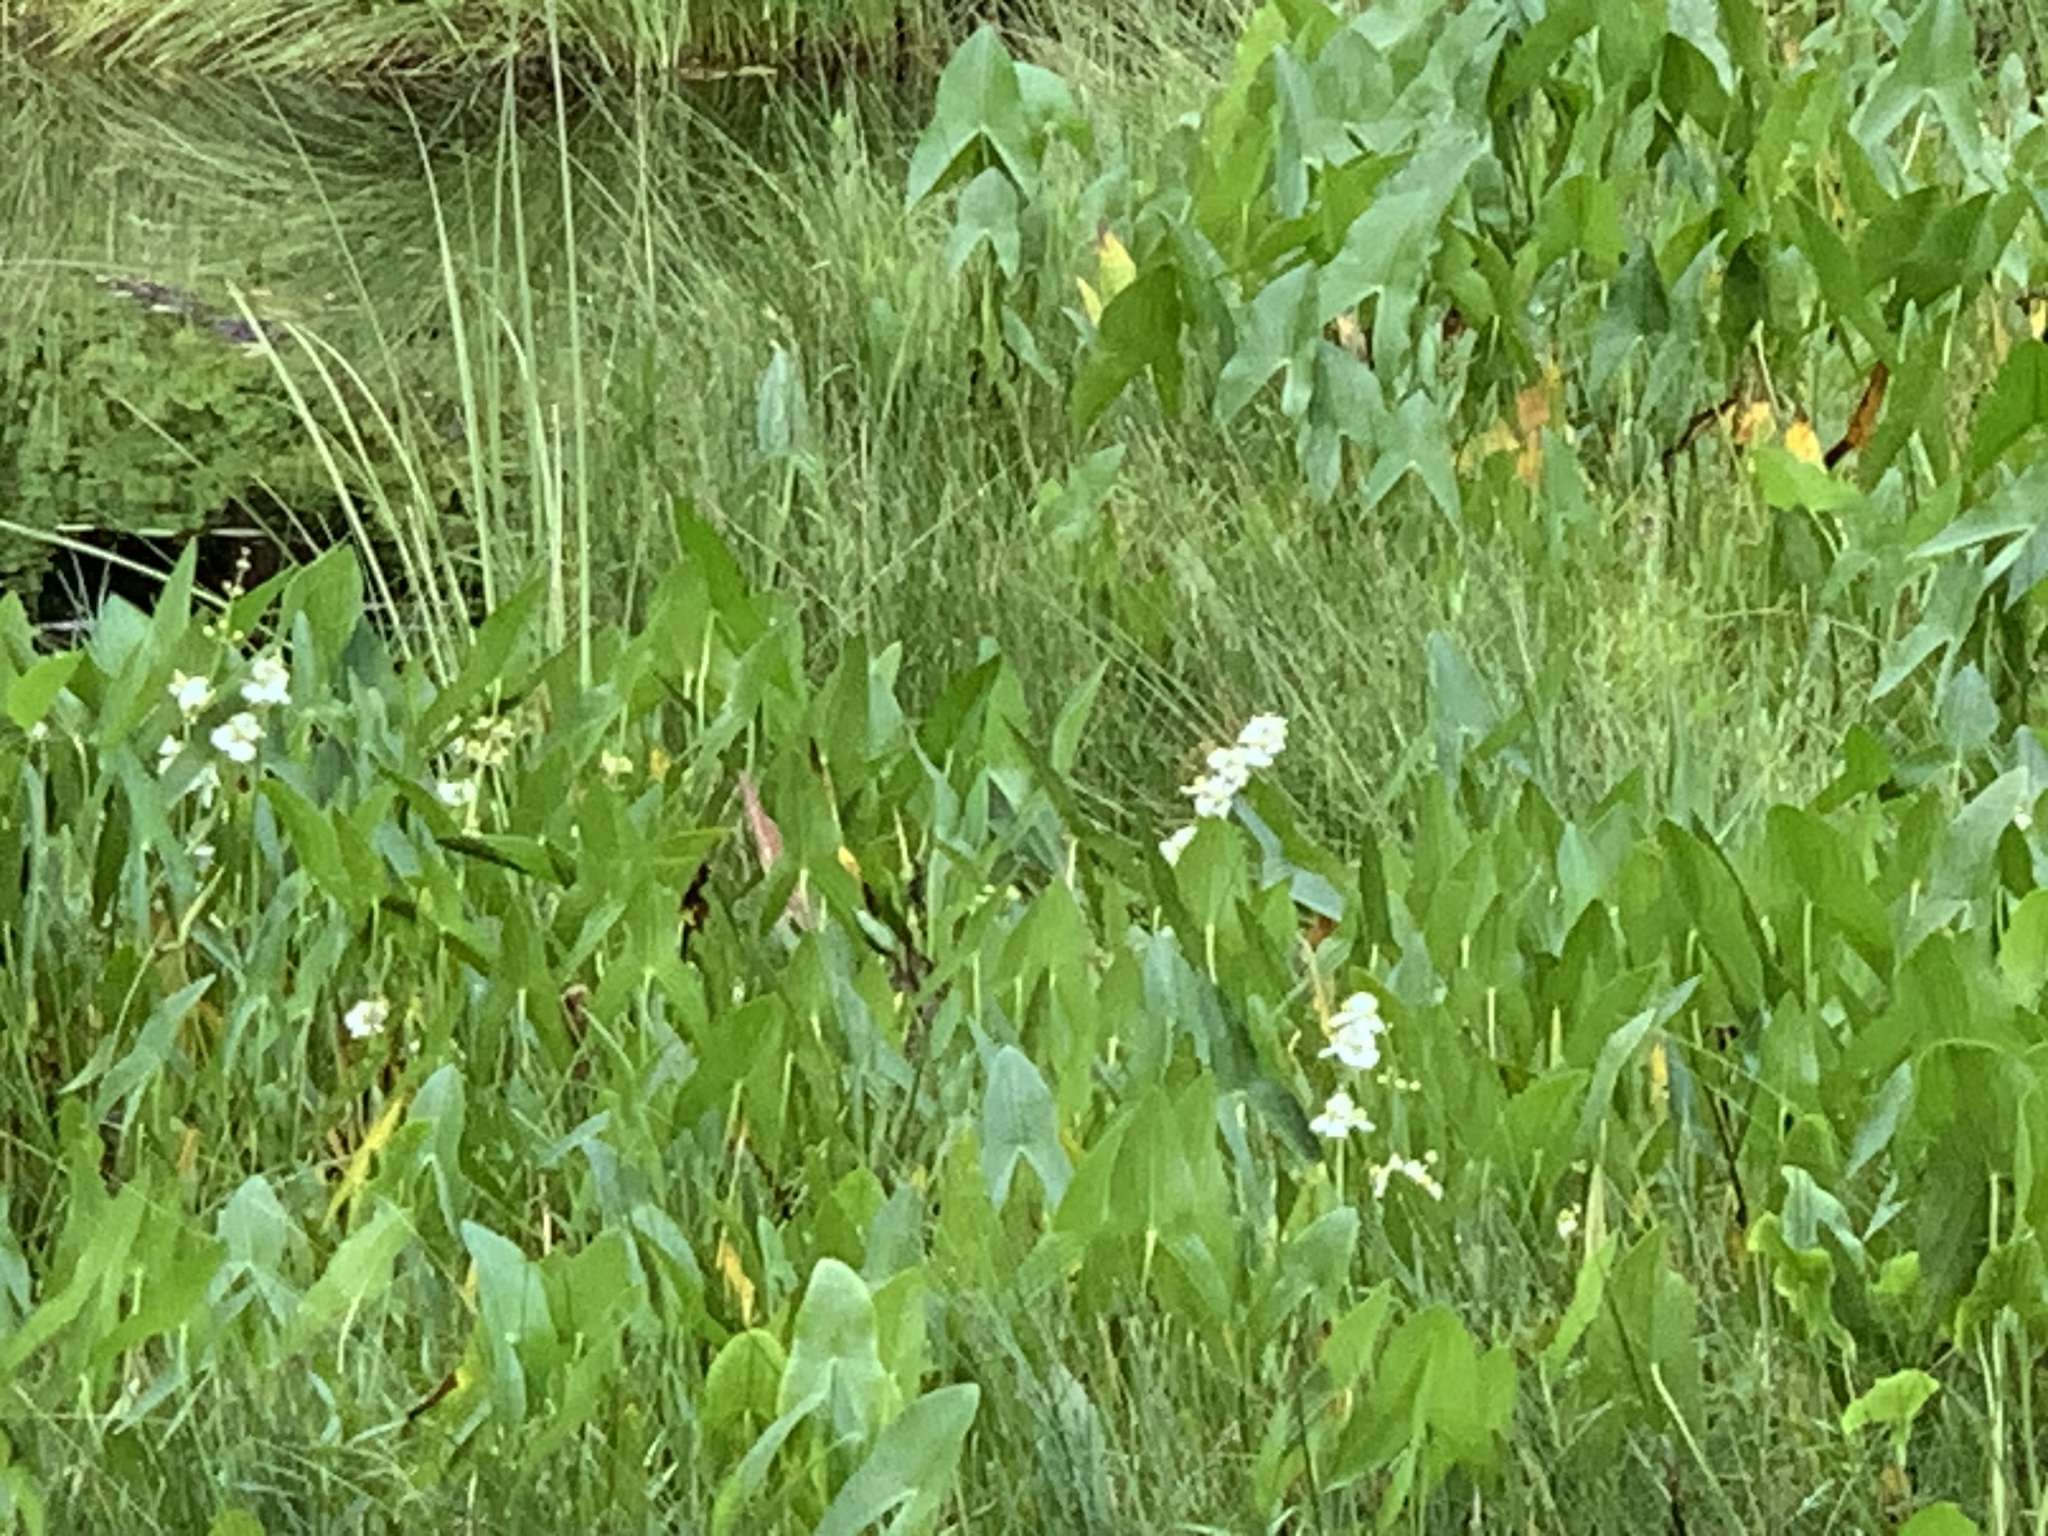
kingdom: Plantae
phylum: Tracheophyta
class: Liliopsida
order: Alismatales
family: Alismataceae
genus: Sagittaria
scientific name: Sagittaria latifolia
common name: Duck-potato
